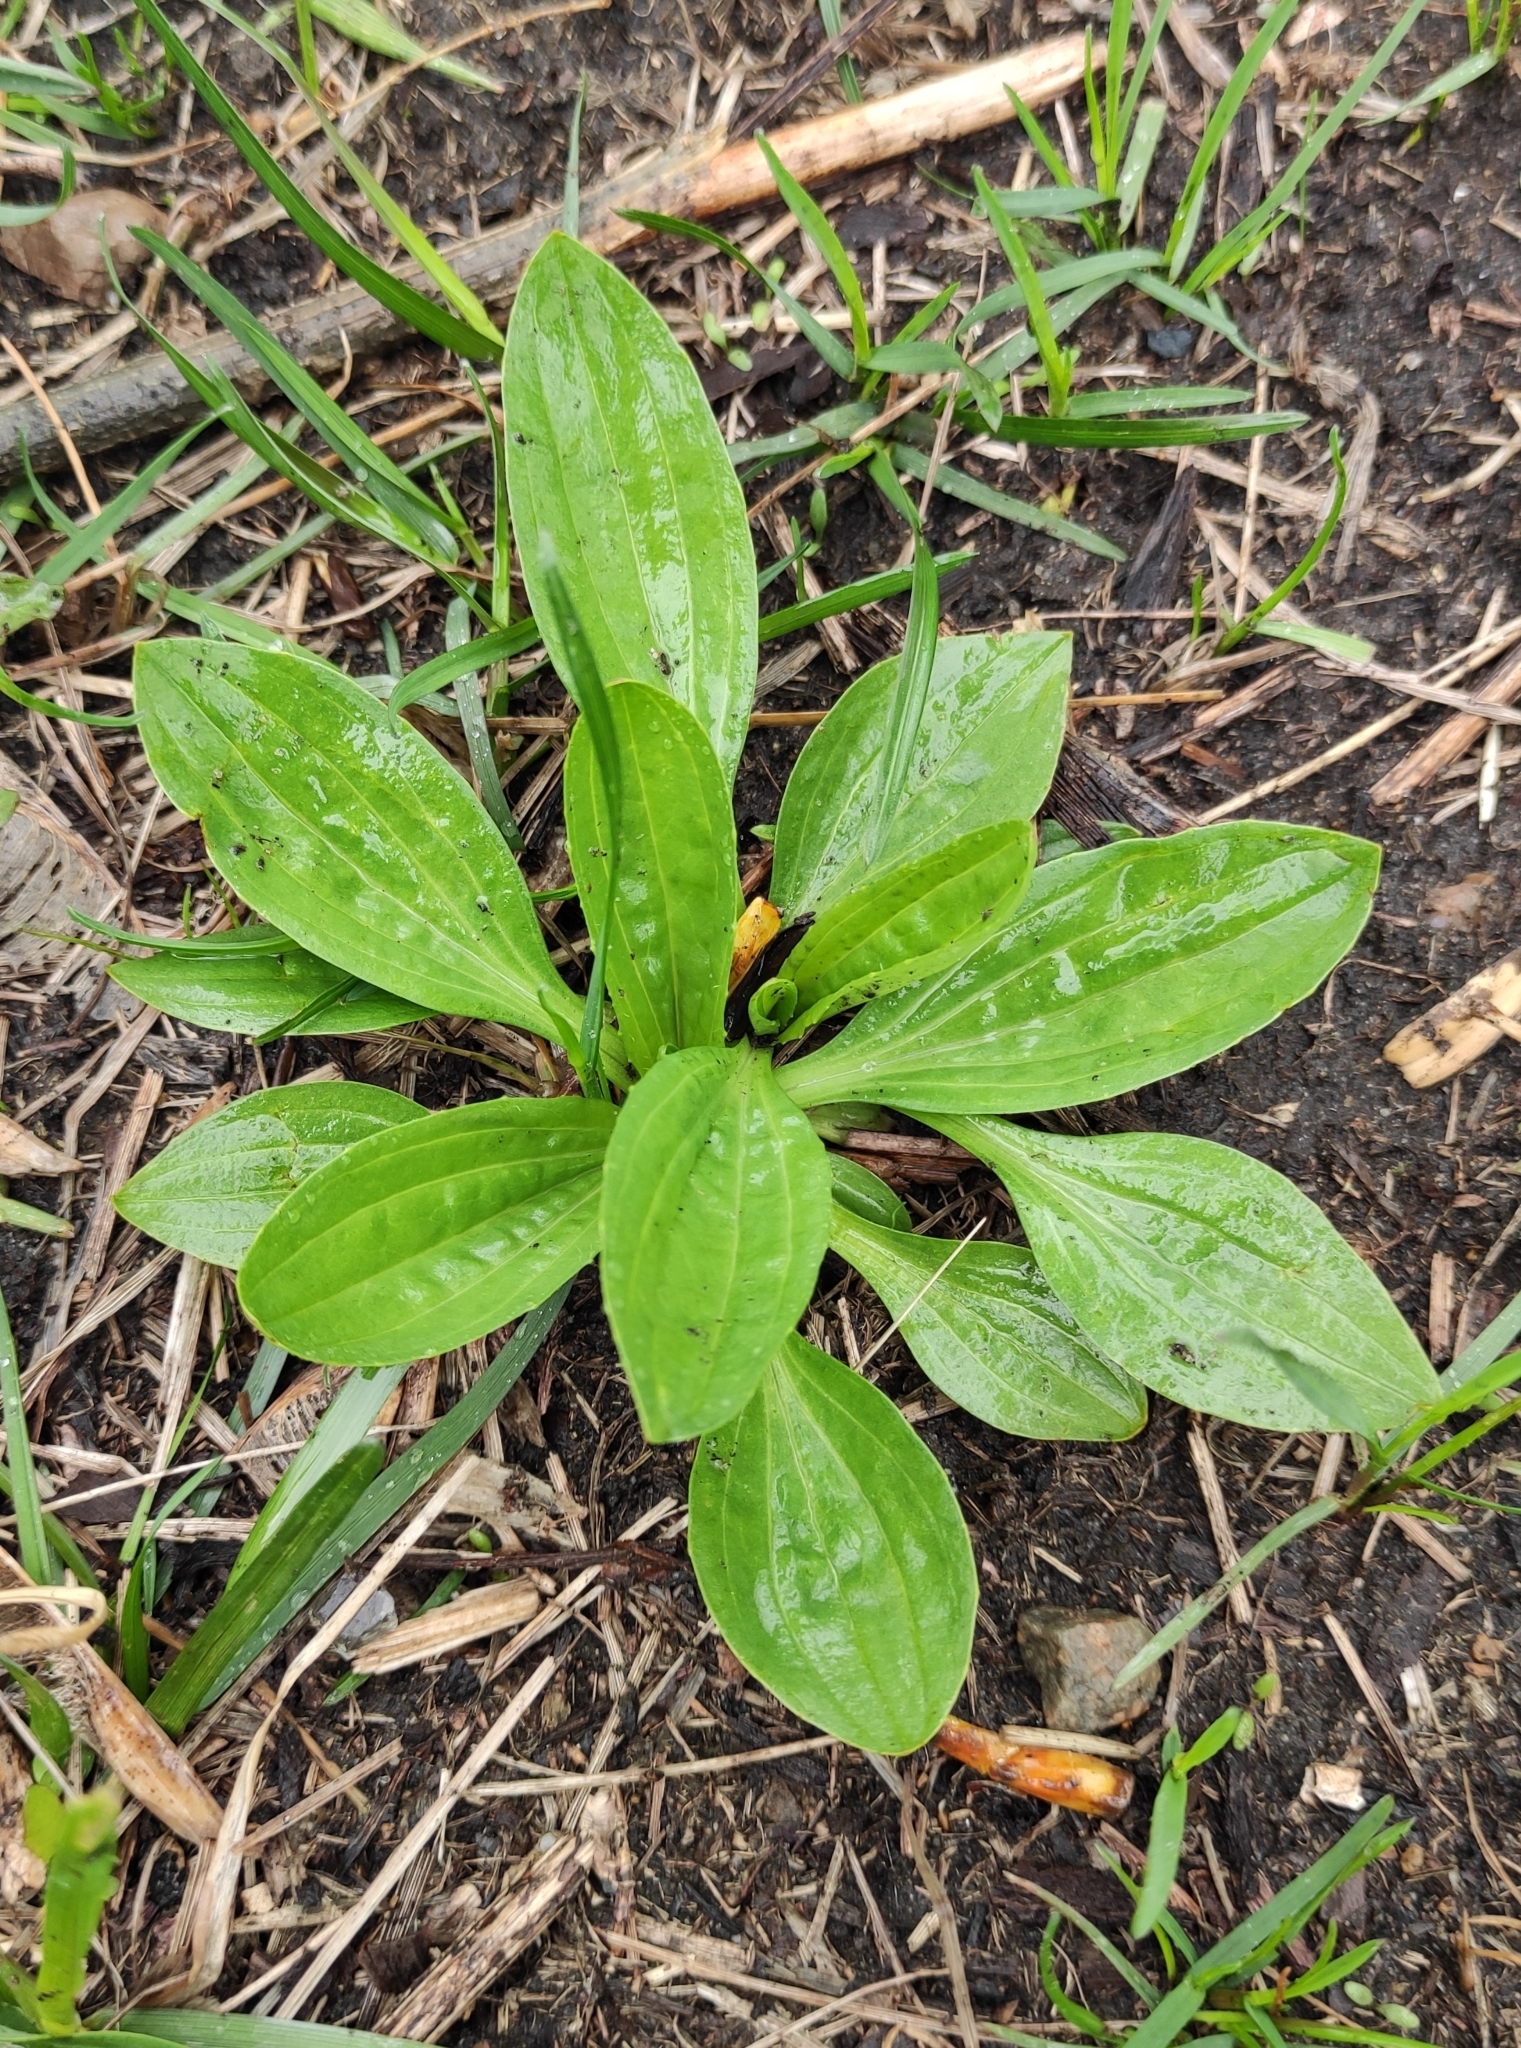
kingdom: Plantae
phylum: Tracheophyta
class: Magnoliopsida
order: Lamiales
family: Plantaginaceae
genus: Plantago
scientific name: Plantago major
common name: Common plantain
